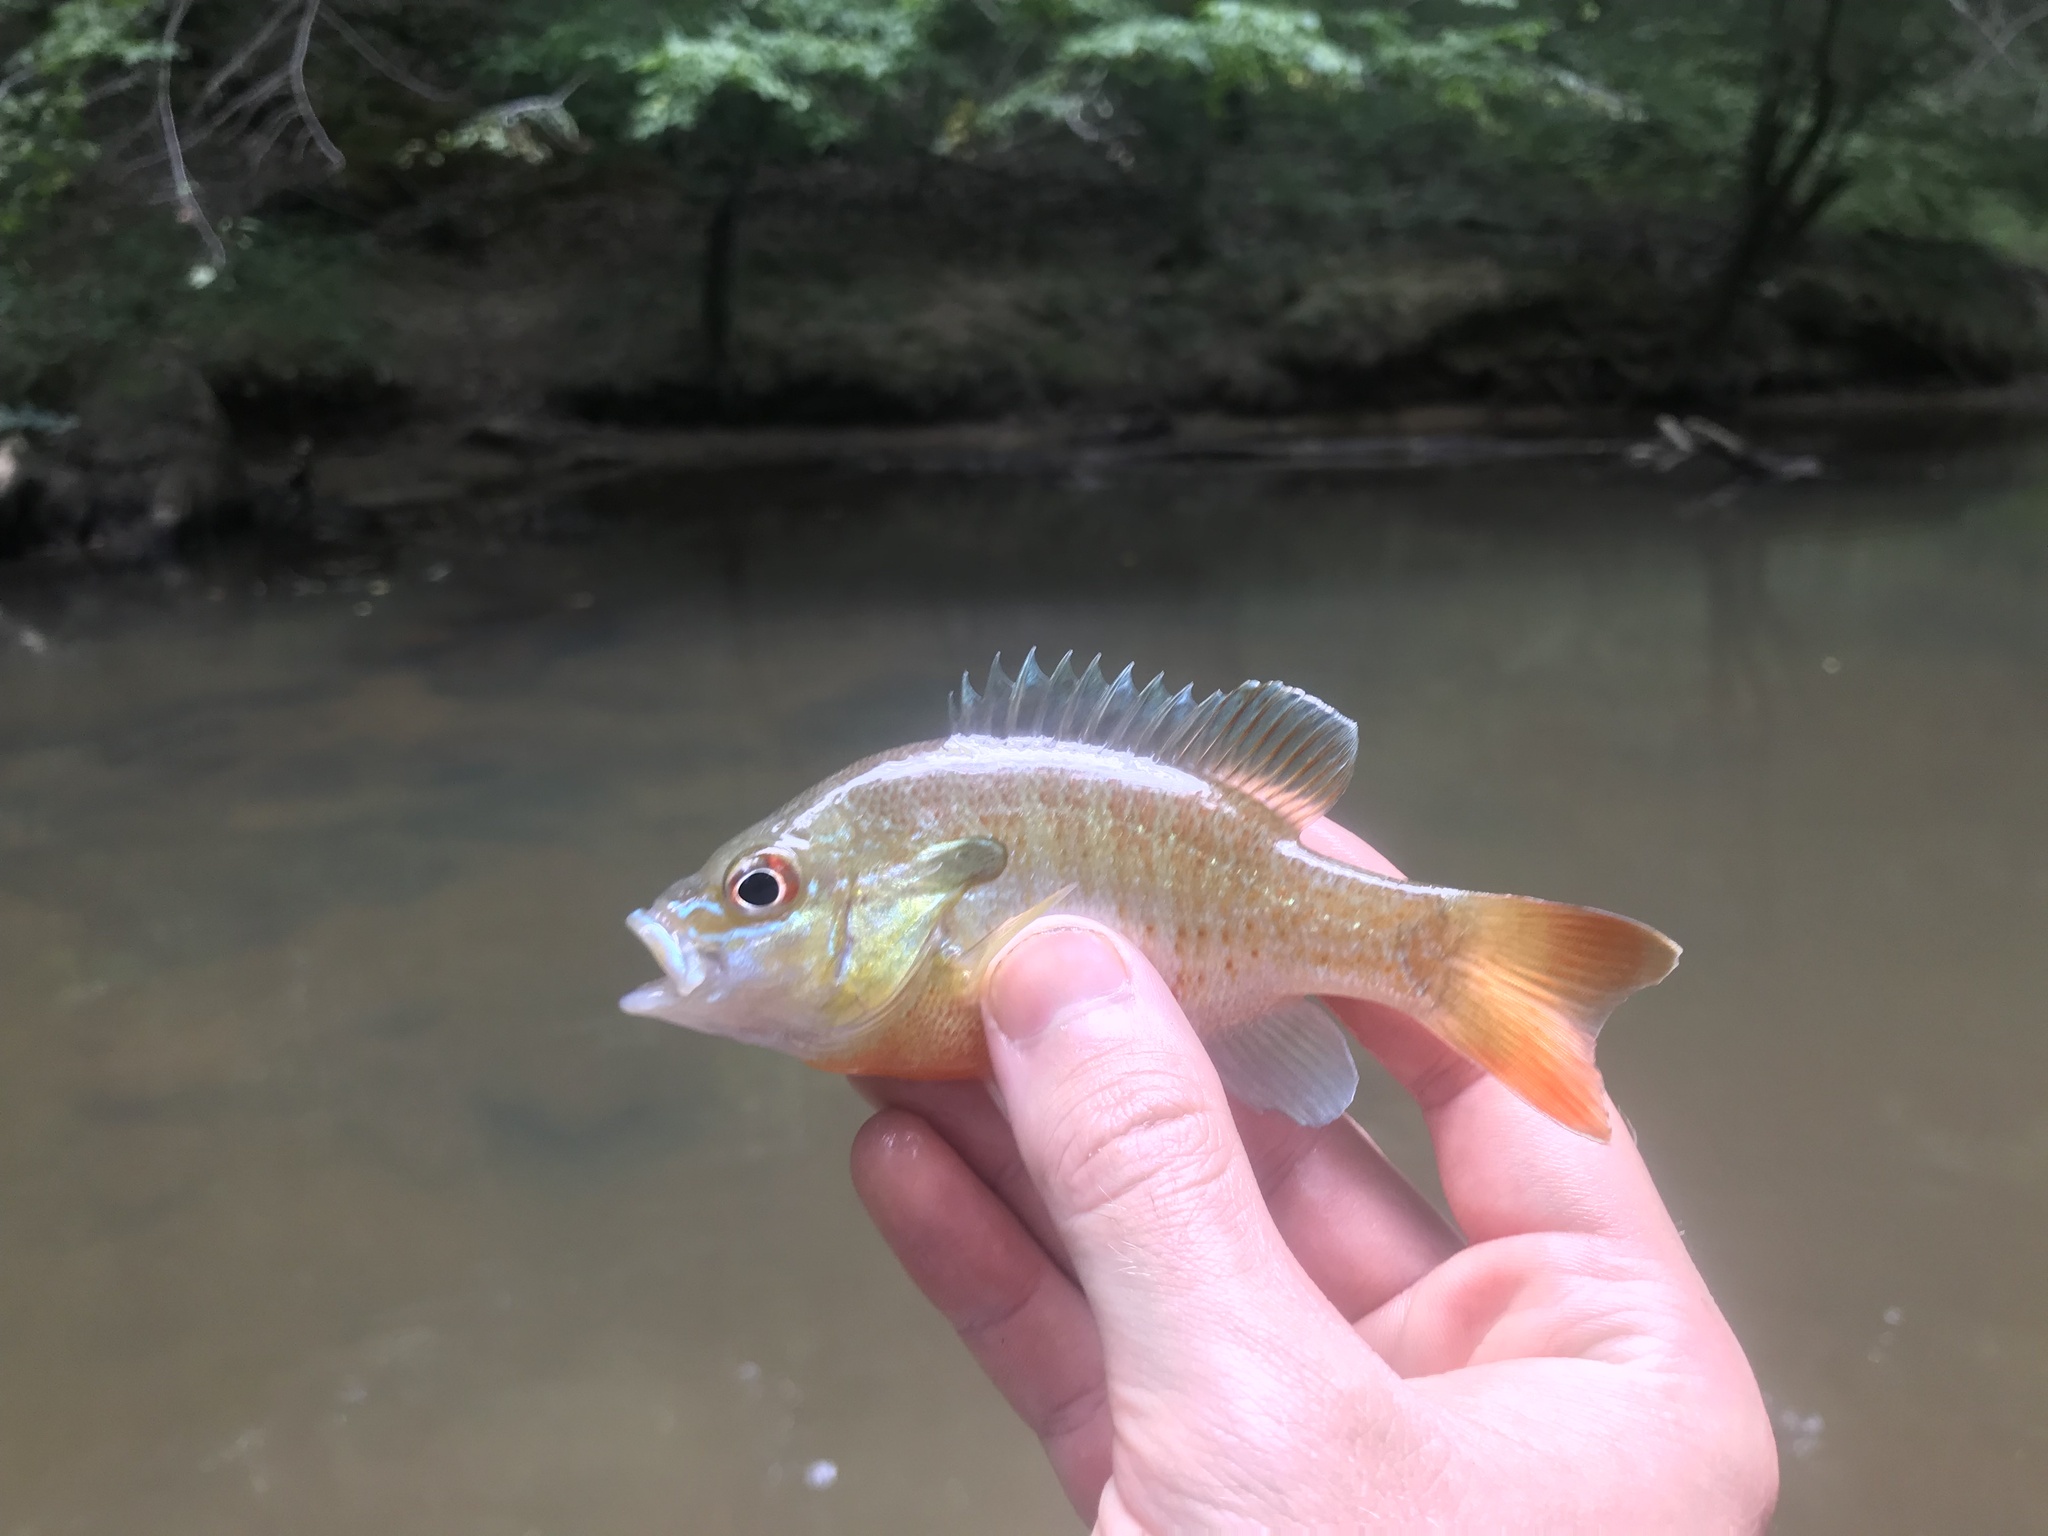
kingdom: Animalia
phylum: Chordata
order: Perciformes
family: Centrarchidae
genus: Lepomis
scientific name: Lepomis auritus
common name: Redbreast sunfish
